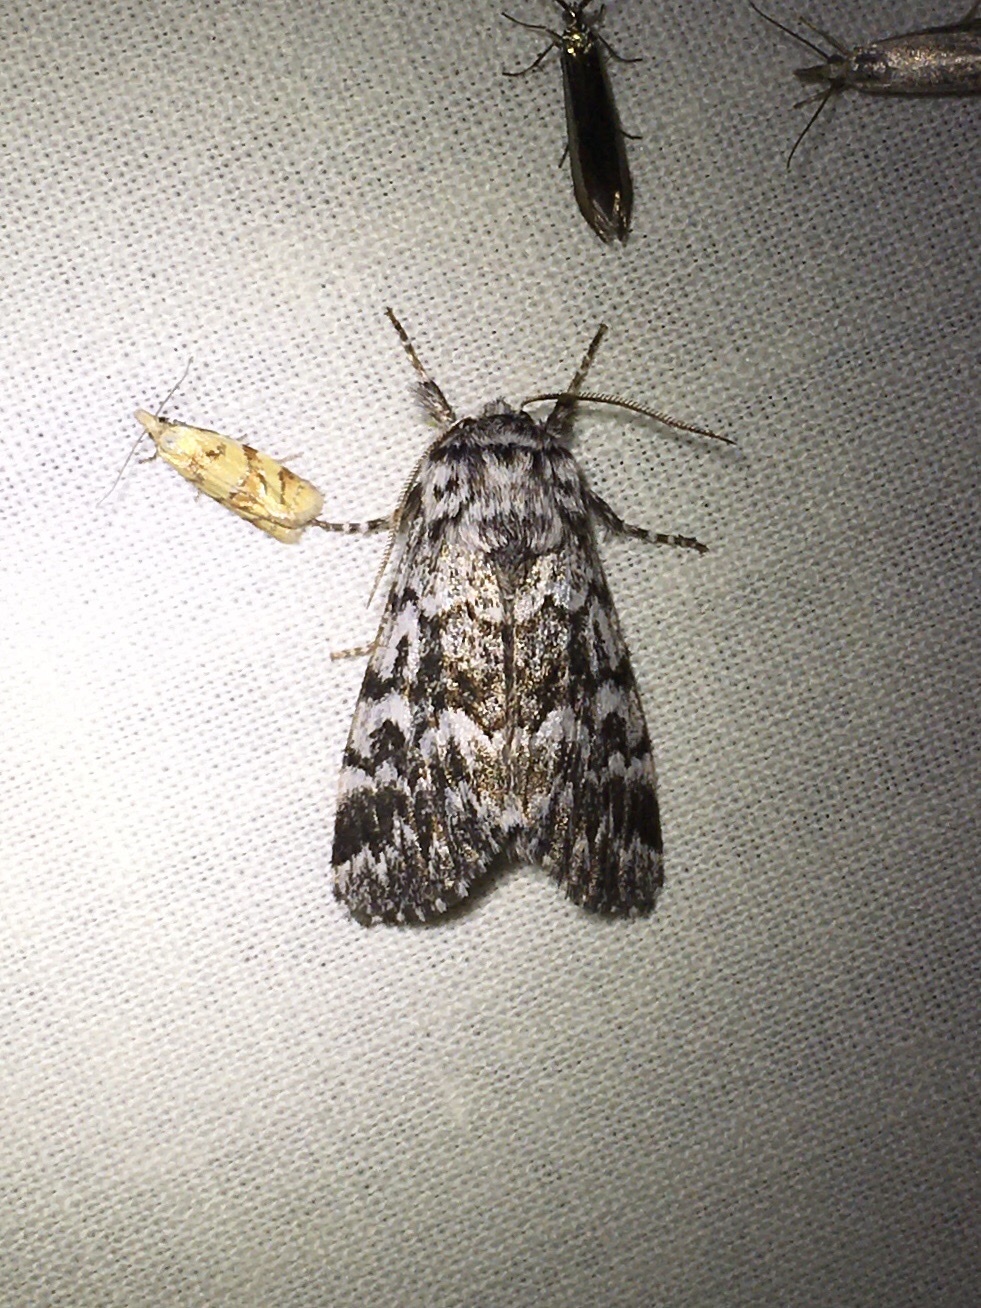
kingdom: Animalia
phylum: Arthropoda
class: Insecta
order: Lepidoptera
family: Noctuidae
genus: Panthea
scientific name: Panthea acronyctoides
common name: Black zigzag moth
